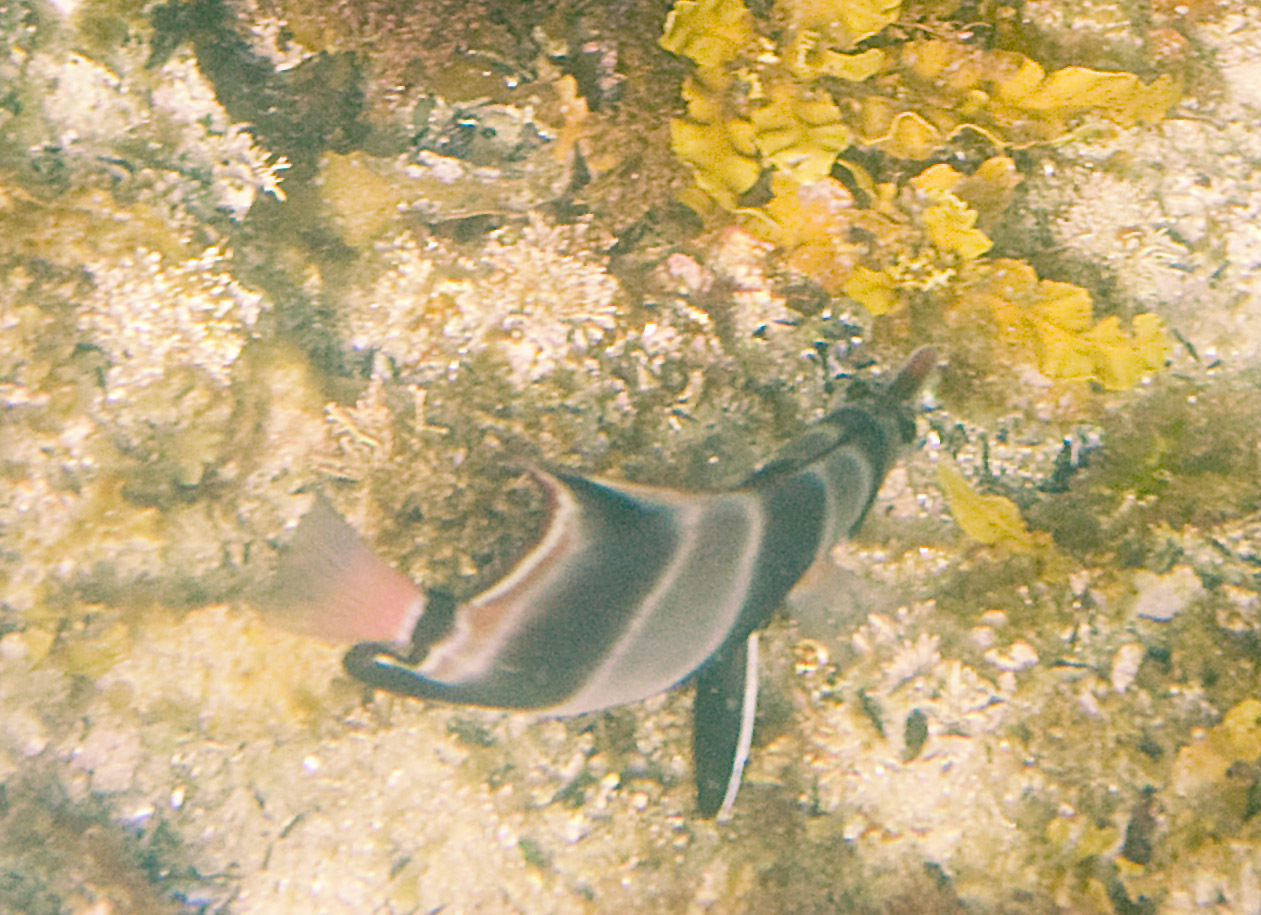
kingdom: Animalia
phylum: Chordata
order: Perciformes
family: Chaetodontidae
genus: Chelmonops
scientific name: Chelmonops curiosus
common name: Western talma
